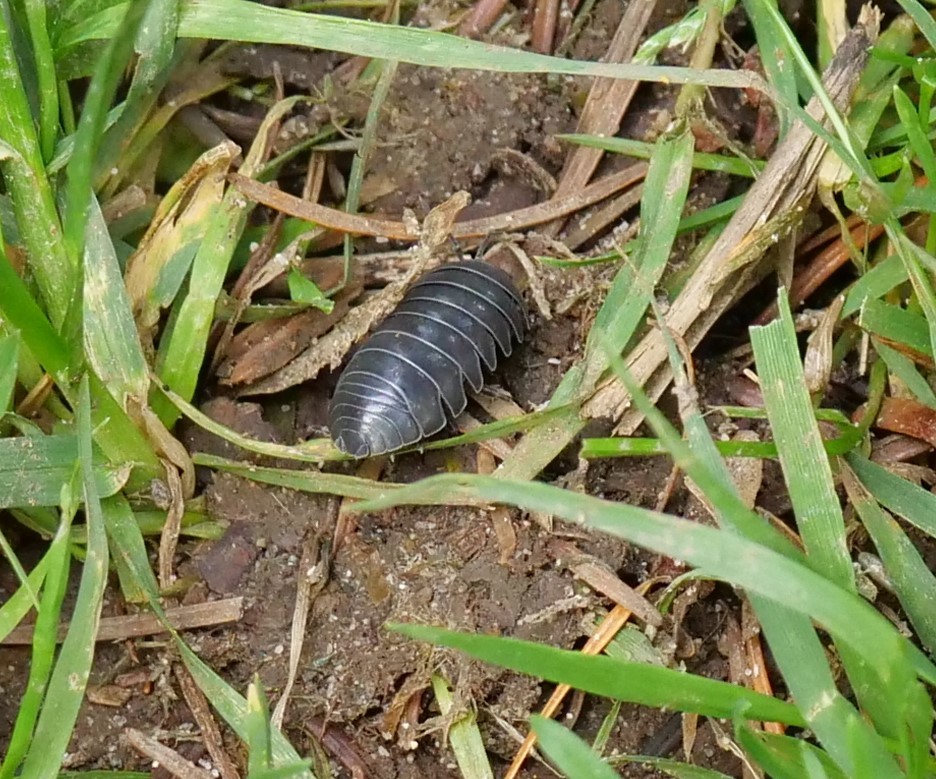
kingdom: Animalia
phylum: Arthropoda
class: Malacostraca
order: Isopoda
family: Armadillidiidae
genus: Armadillidium
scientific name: Armadillidium vulgare
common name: Common pill woodlouse
